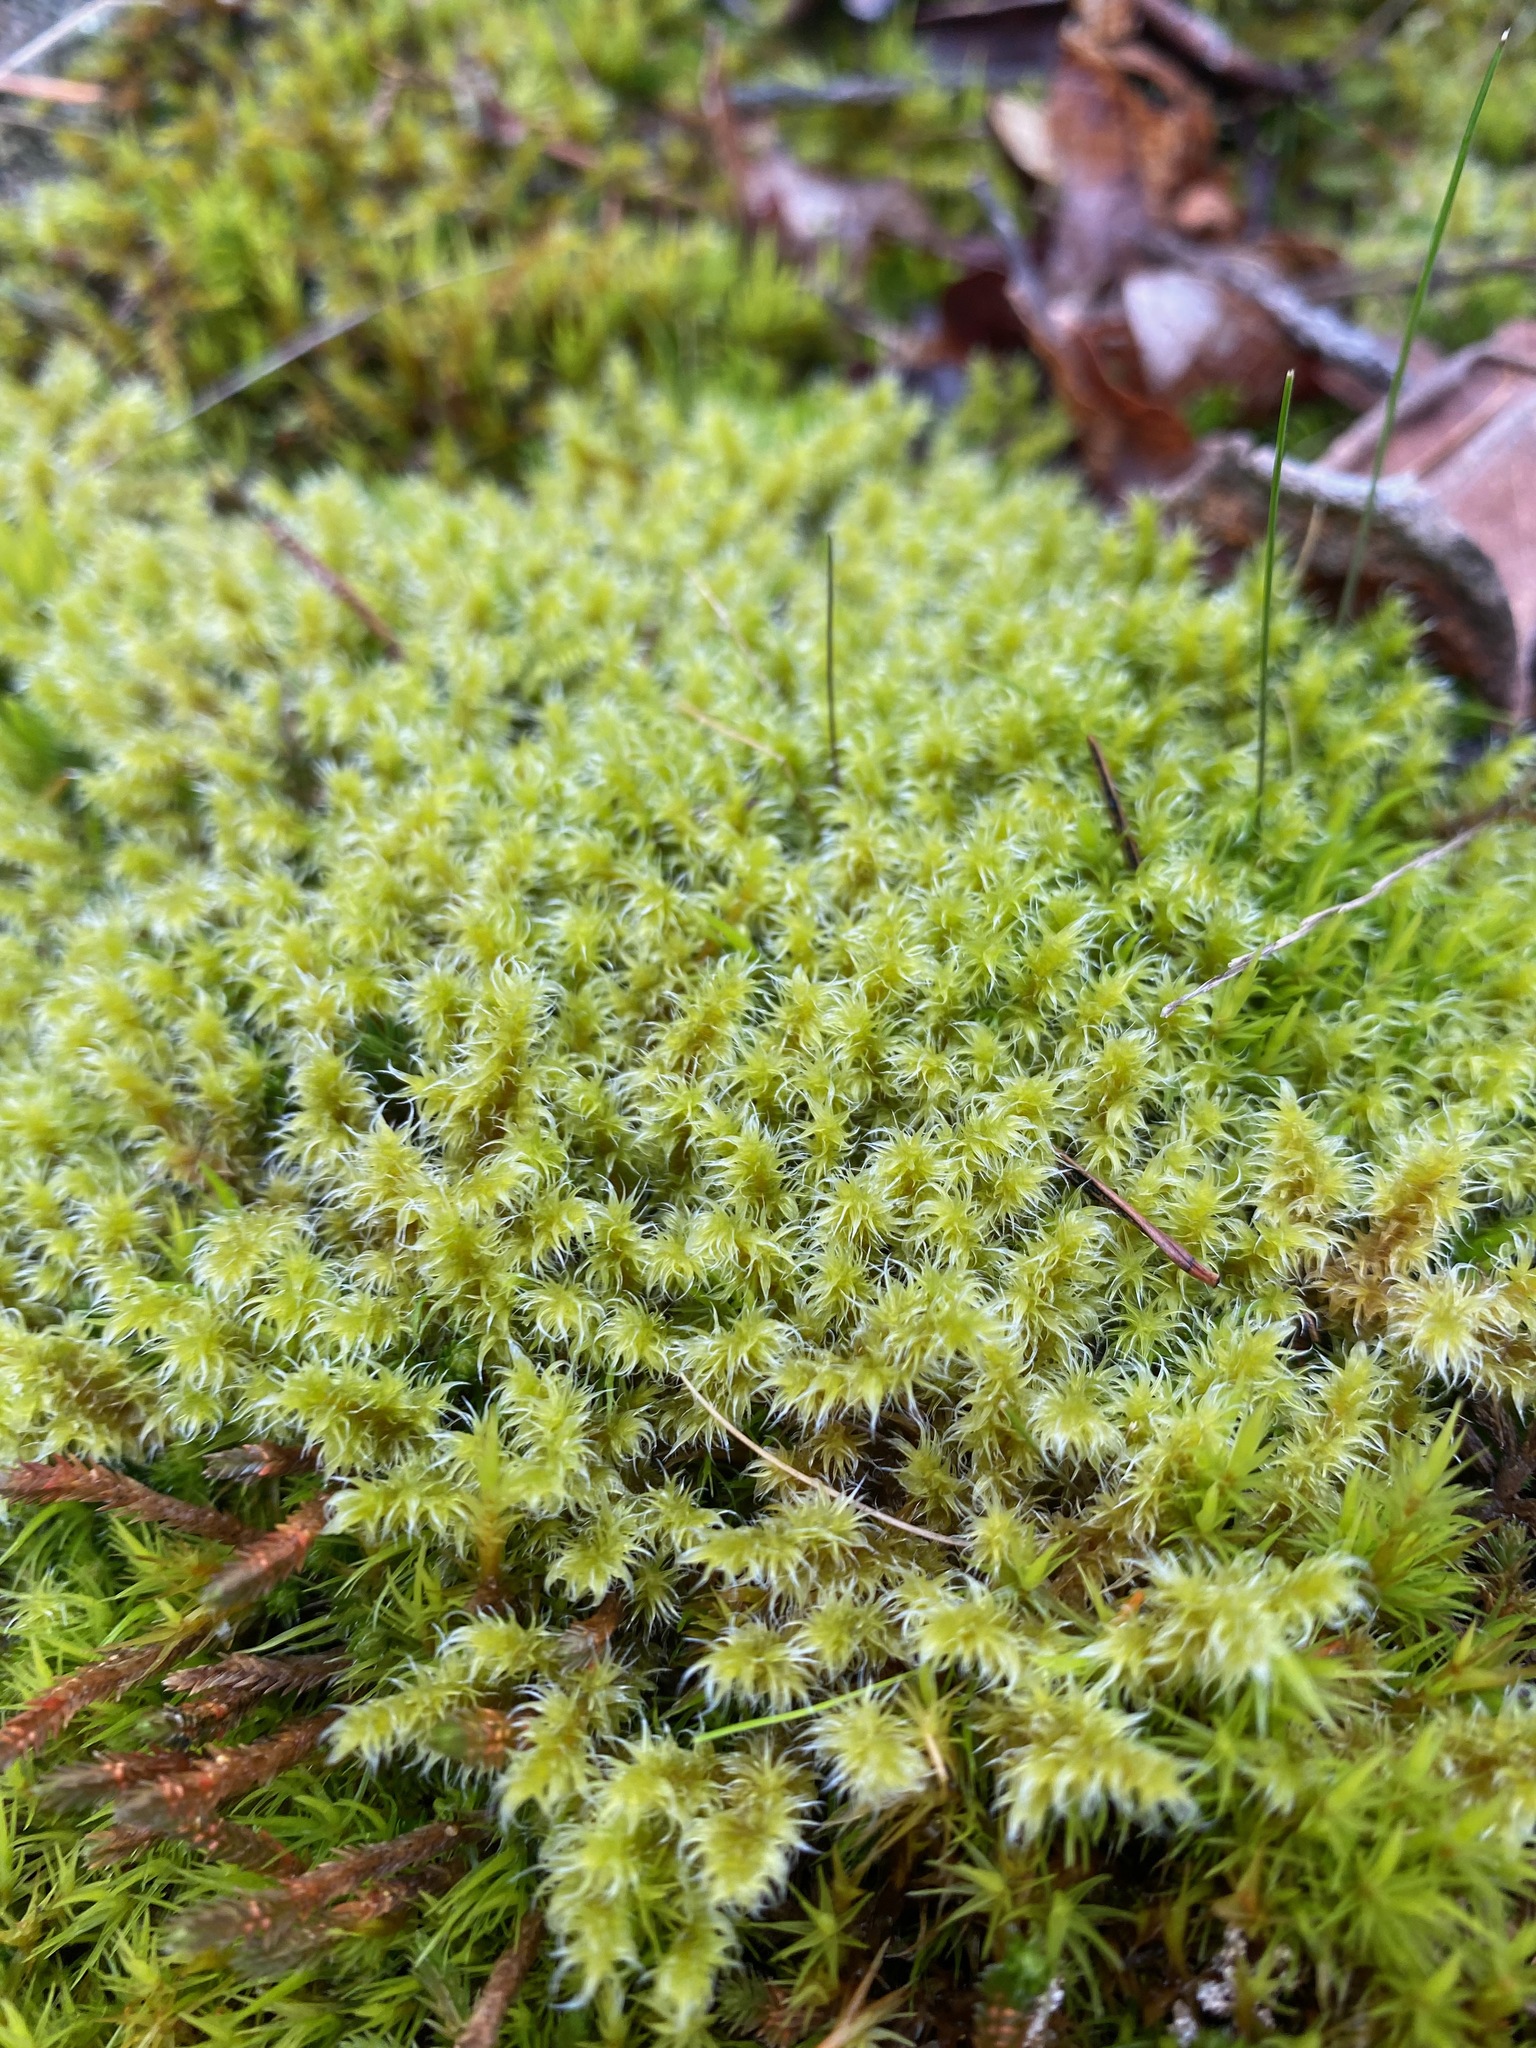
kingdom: Plantae
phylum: Bryophyta
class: Bryopsida
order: Grimmiales
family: Grimmiaceae
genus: Niphotrichum
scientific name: Niphotrichum elongatum
